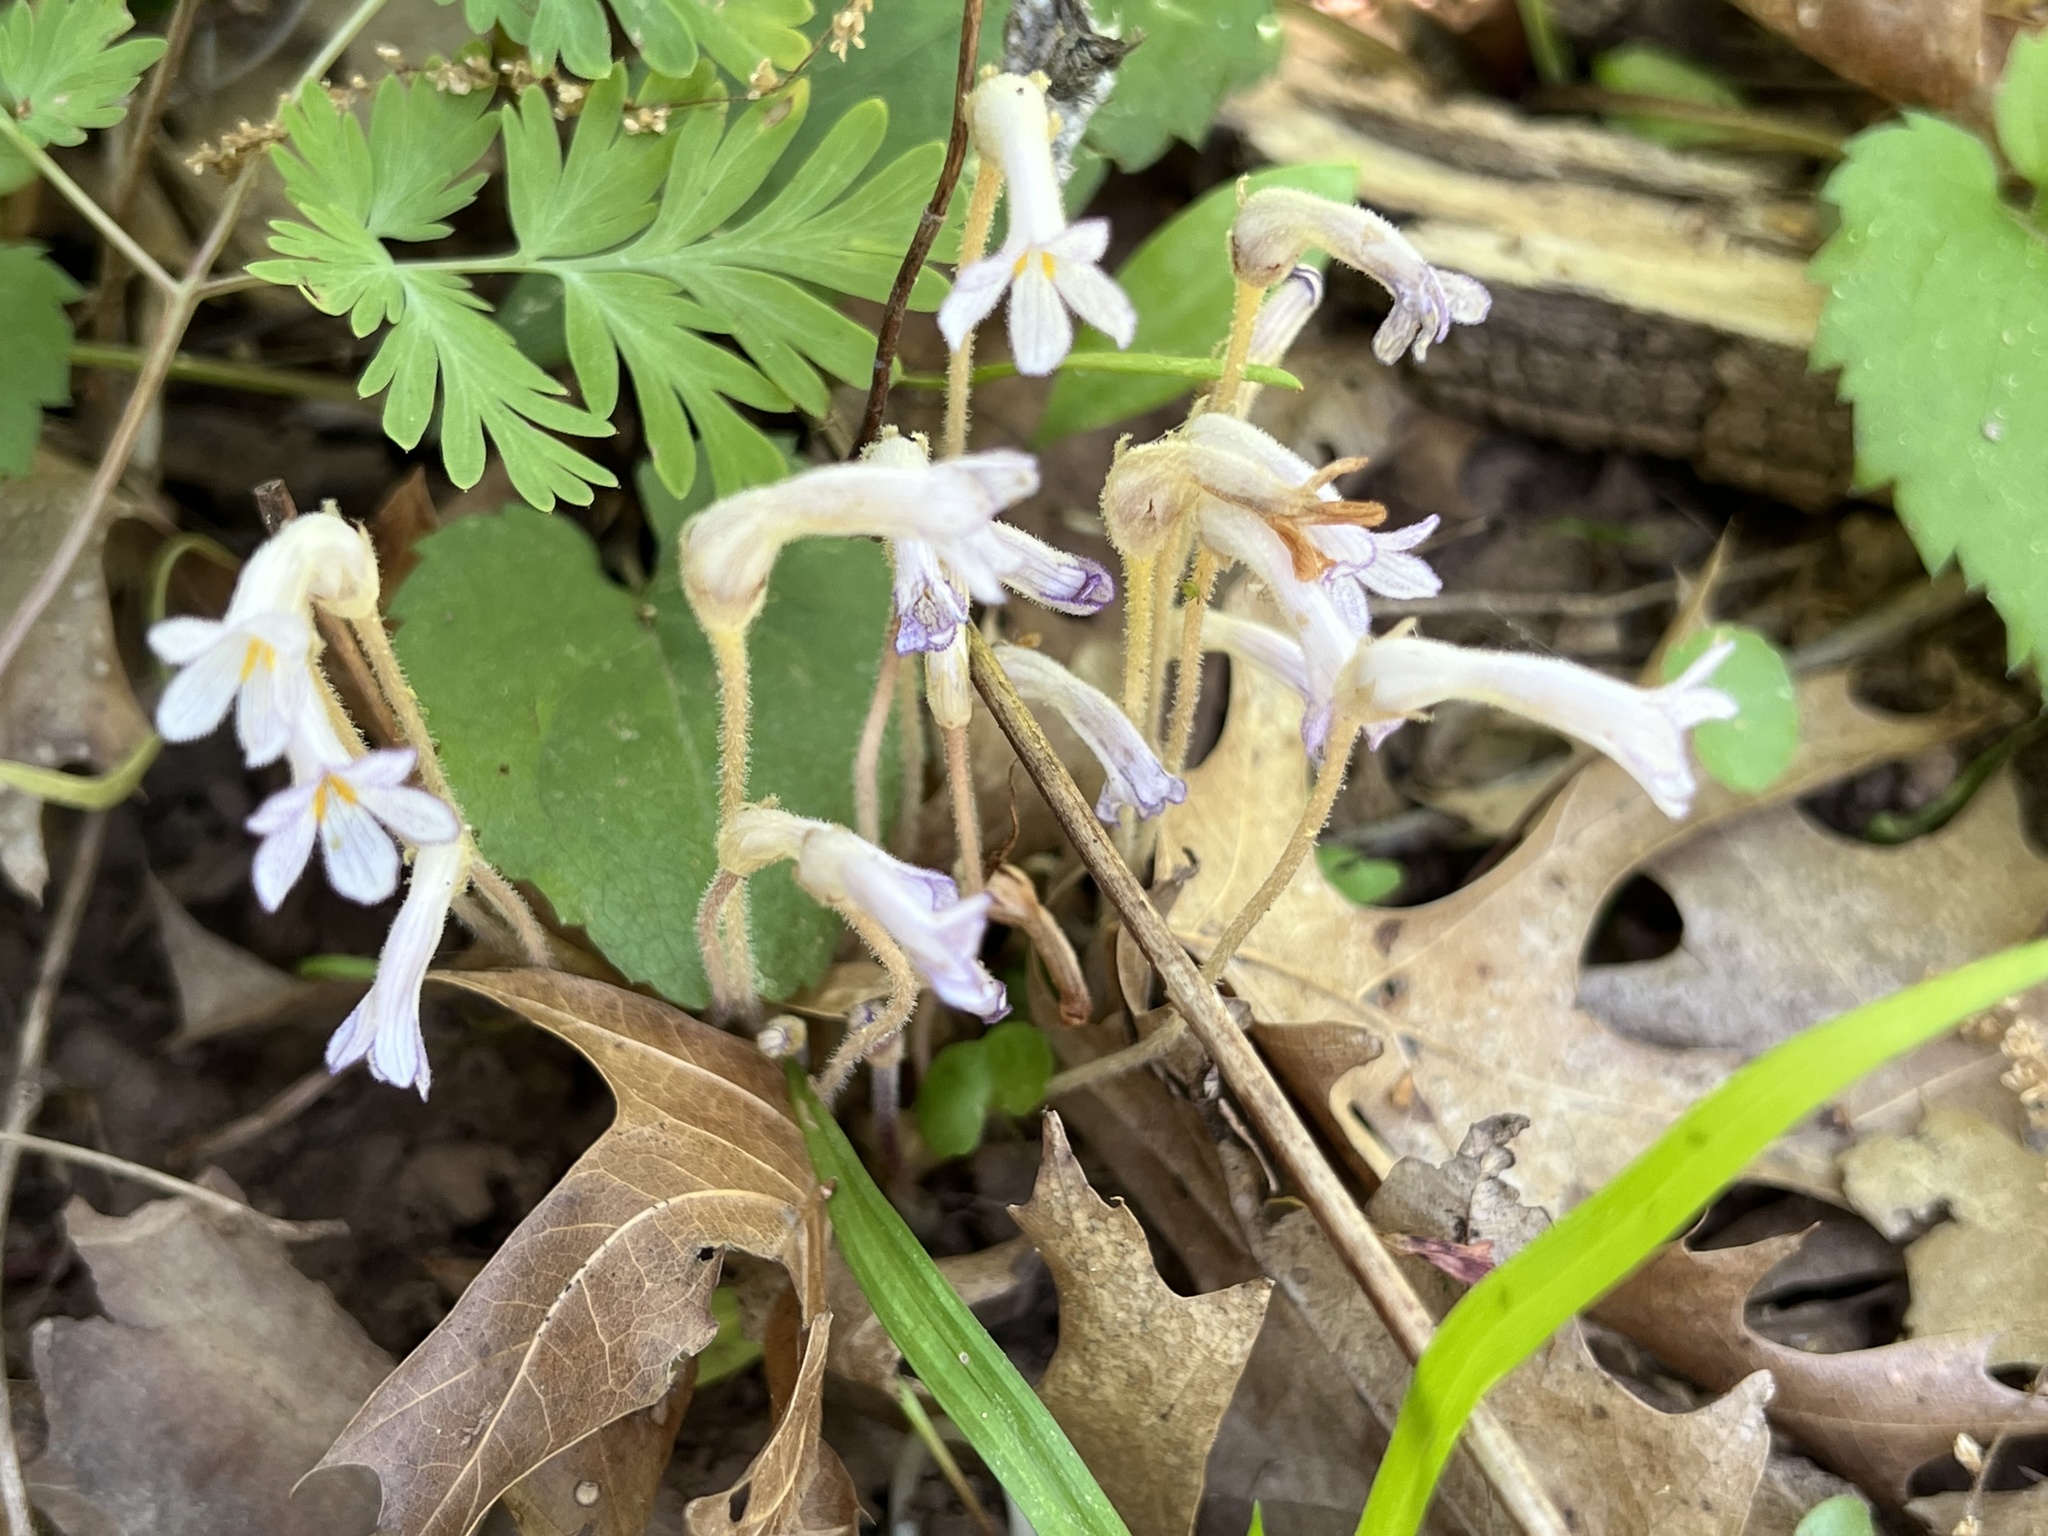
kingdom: Plantae
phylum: Tracheophyta
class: Magnoliopsida
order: Lamiales
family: Orobanchaceae
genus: Aphyllon
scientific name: Aphyllon uniflorum
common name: One-flowered broomrape
